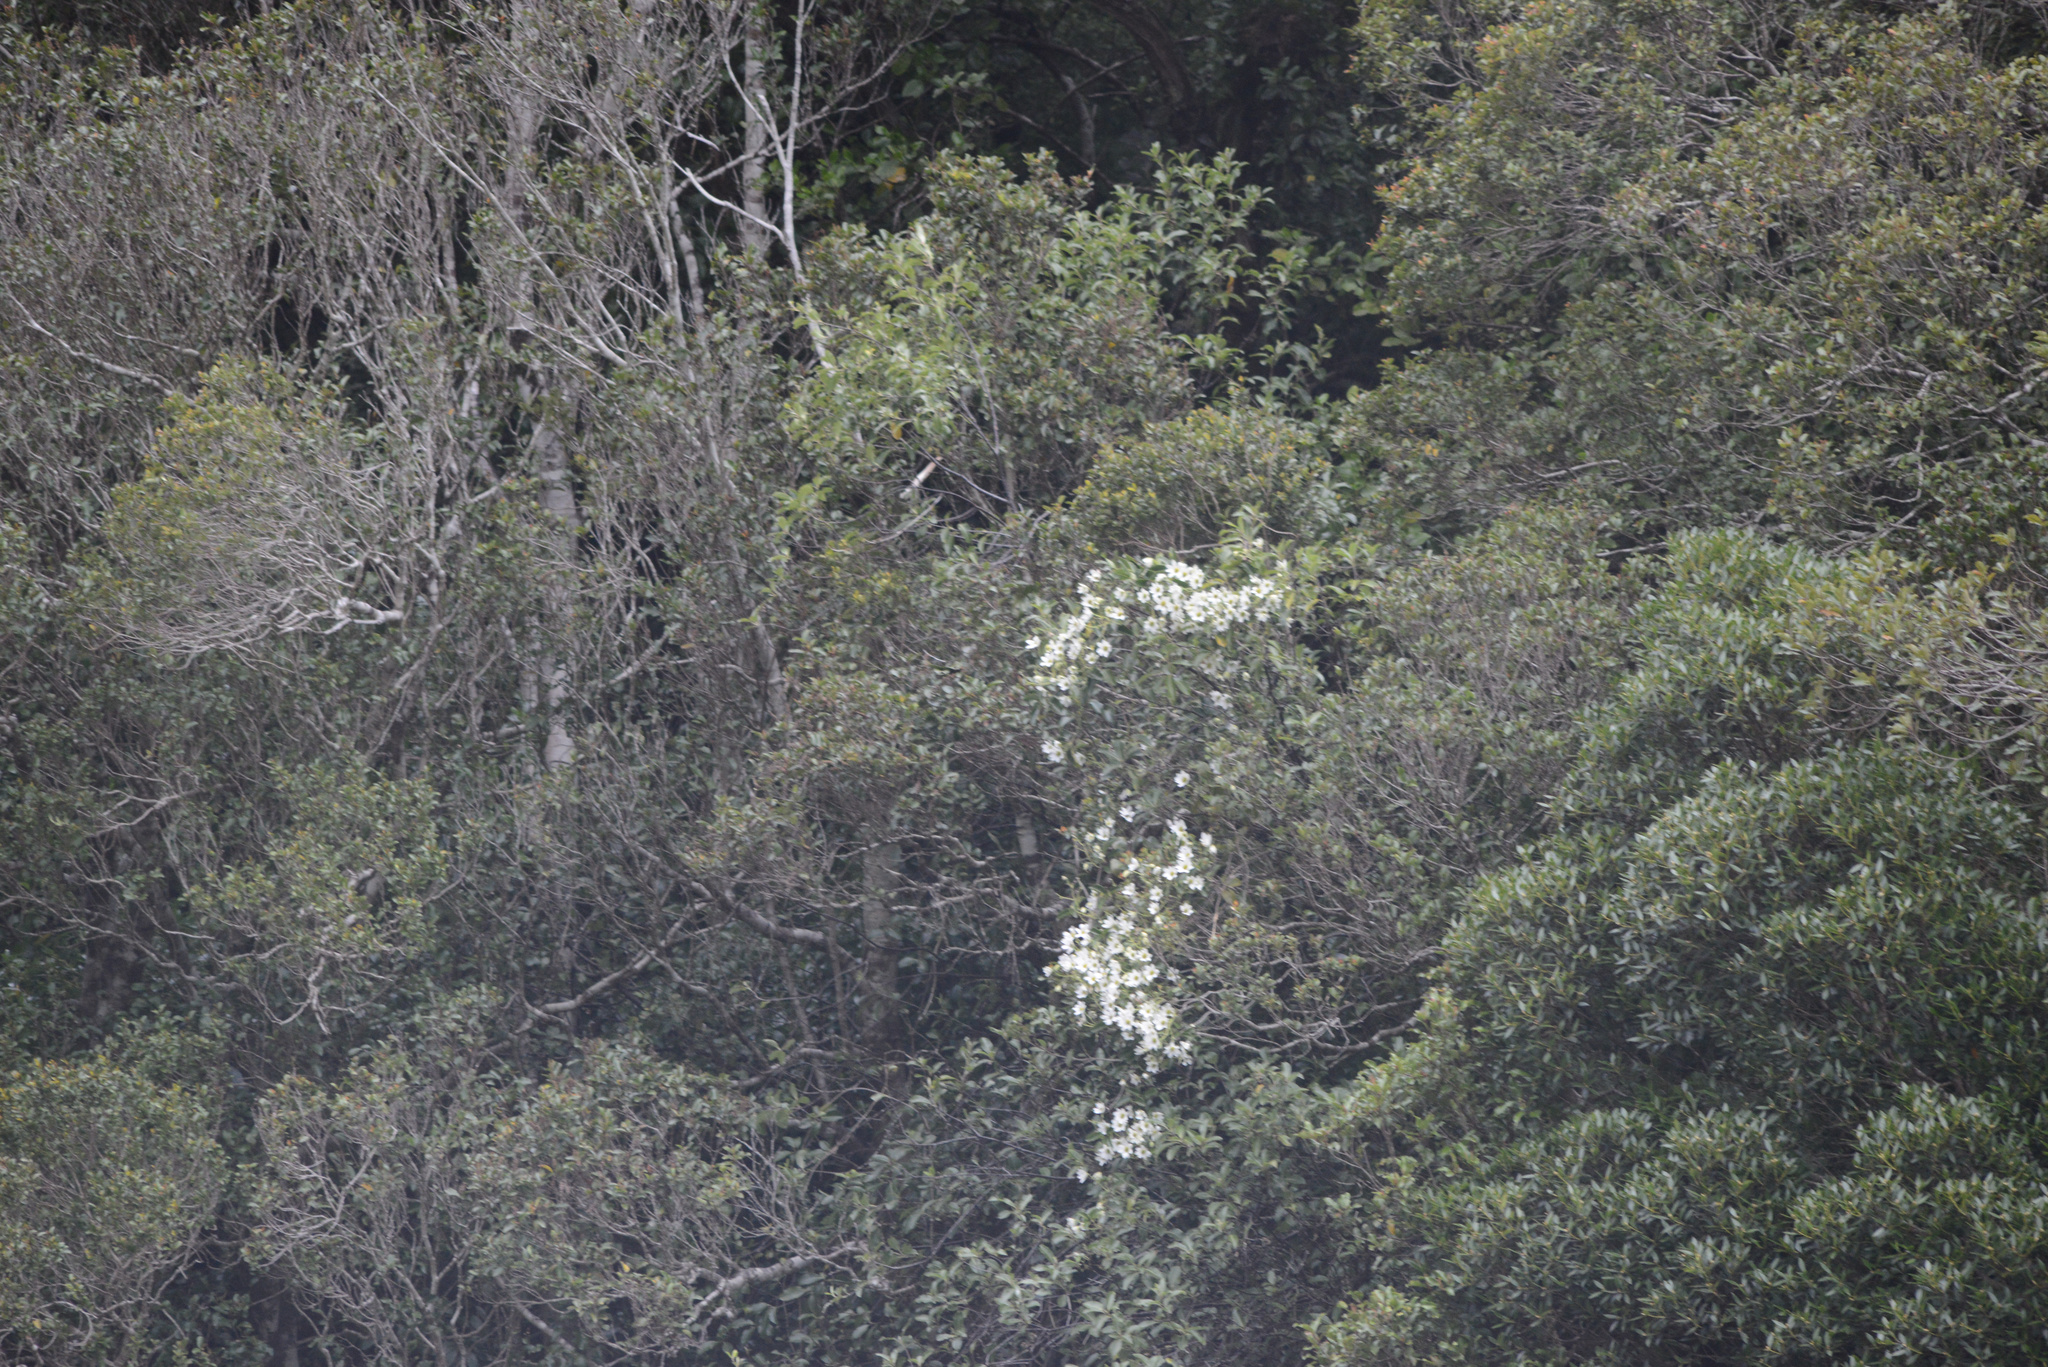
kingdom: Plantae
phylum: Tracheophyta
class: Magnoliopsida
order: Ranunculales
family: Ranunculaceae
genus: Clematis
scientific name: Clematis paniculata
